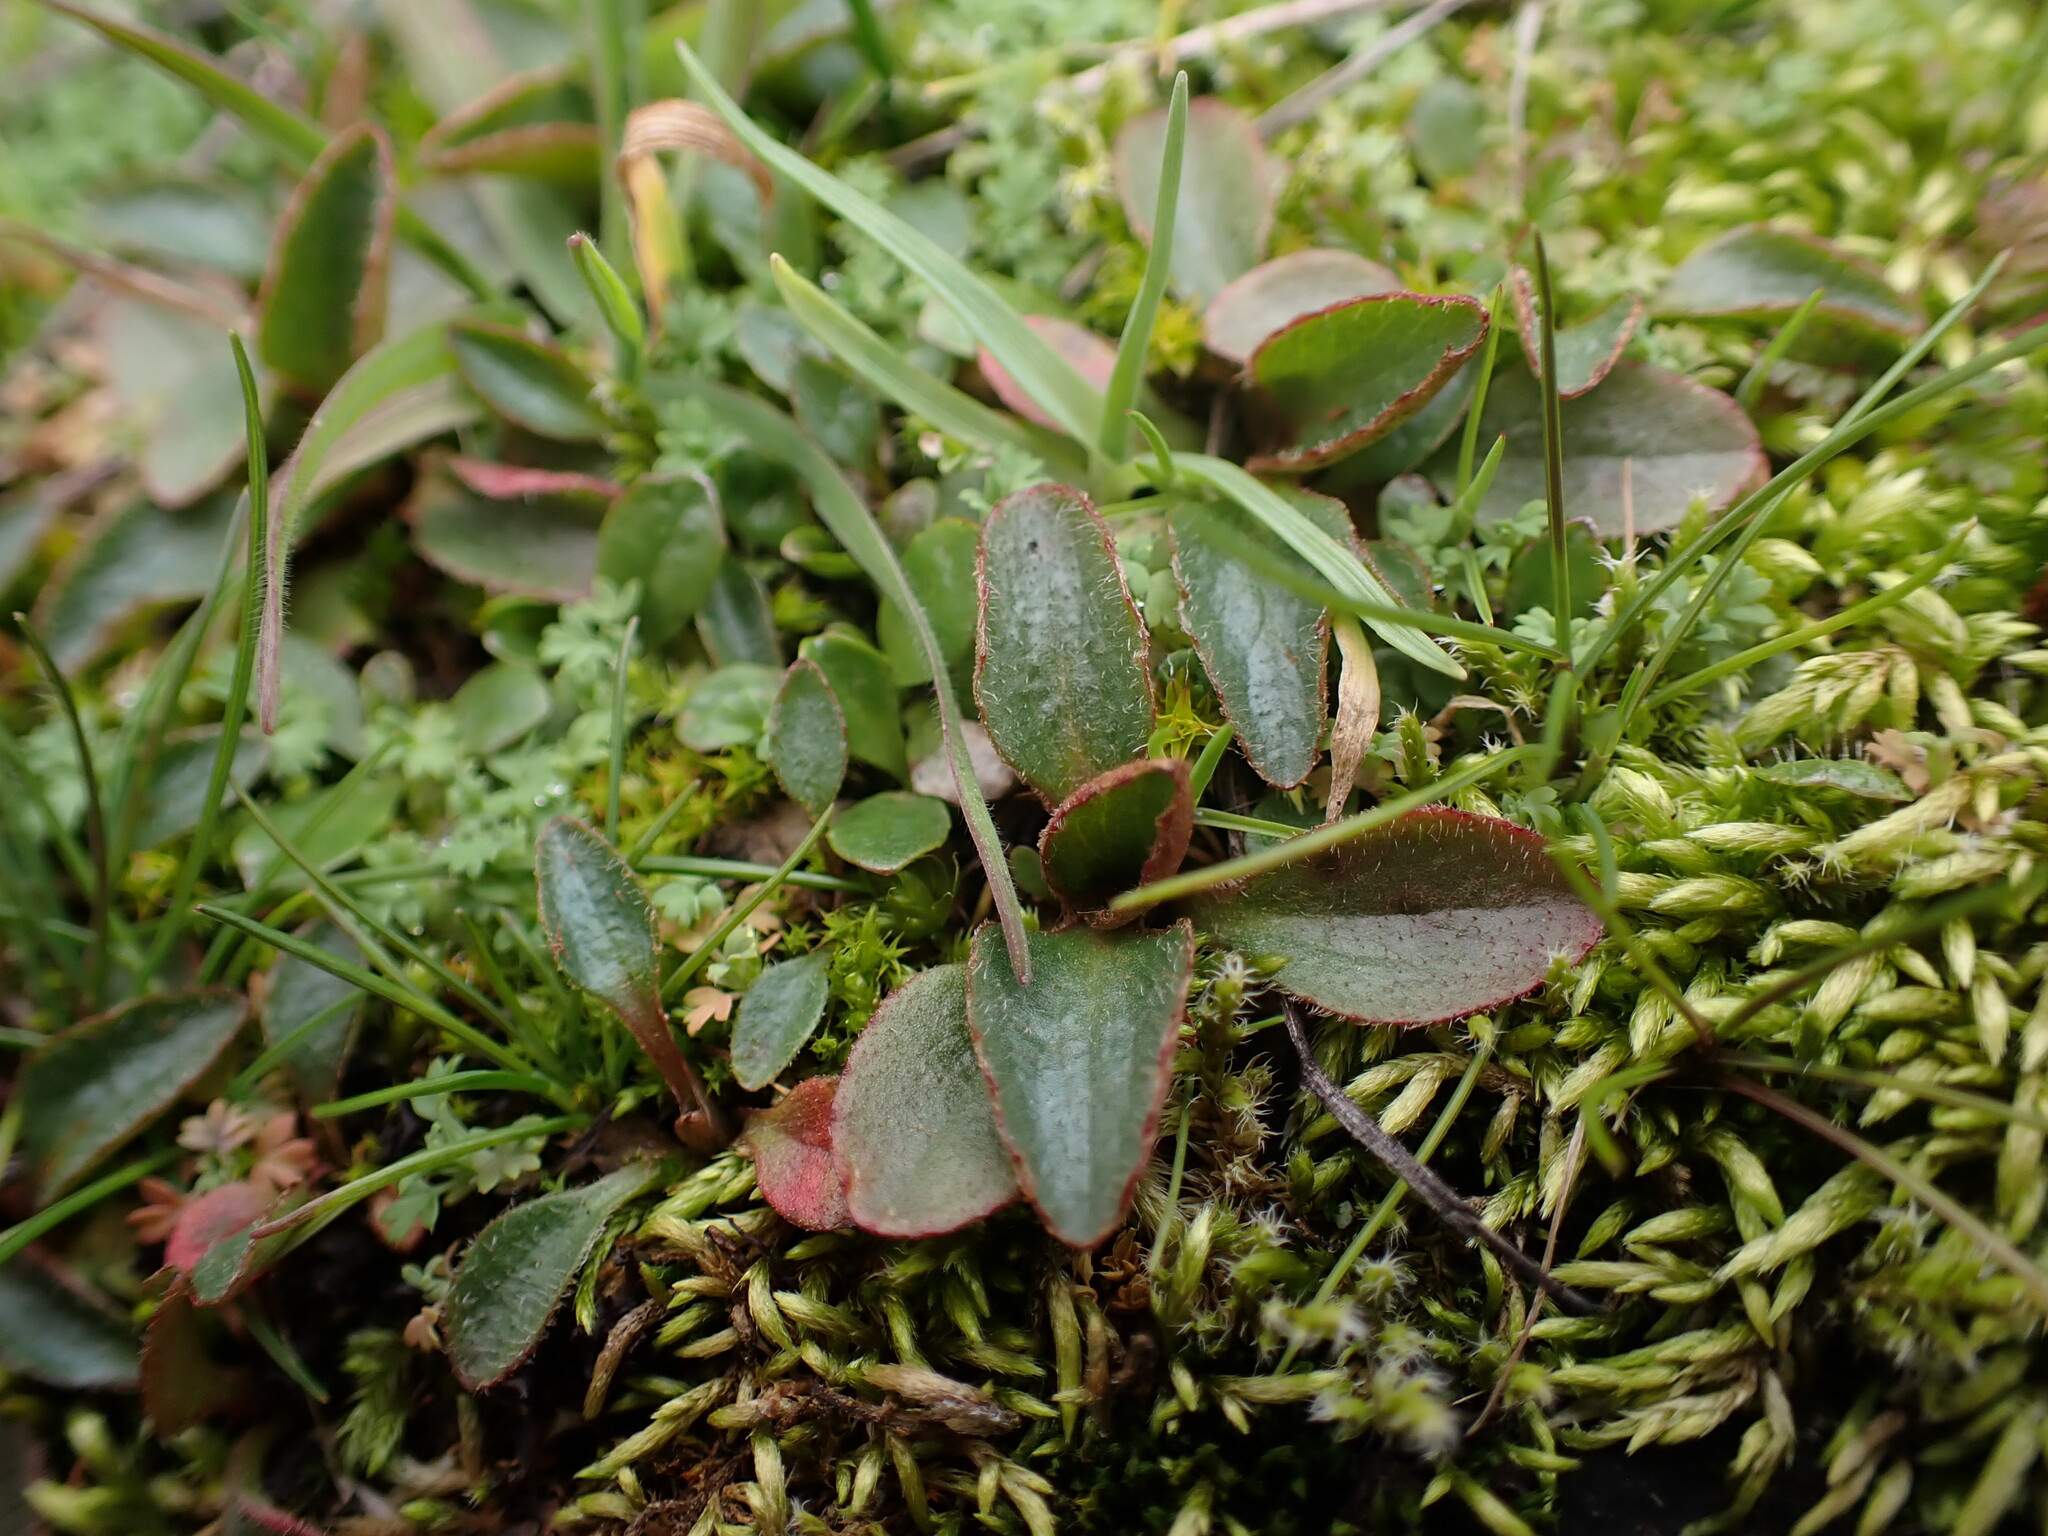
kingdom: Plantae
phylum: Tracheophyta
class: Magnoliopsida
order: Saxifragales
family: Saxifragaceae
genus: Micranthes
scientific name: Micranthes integrifolia
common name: Wholeleaf saxifrage
